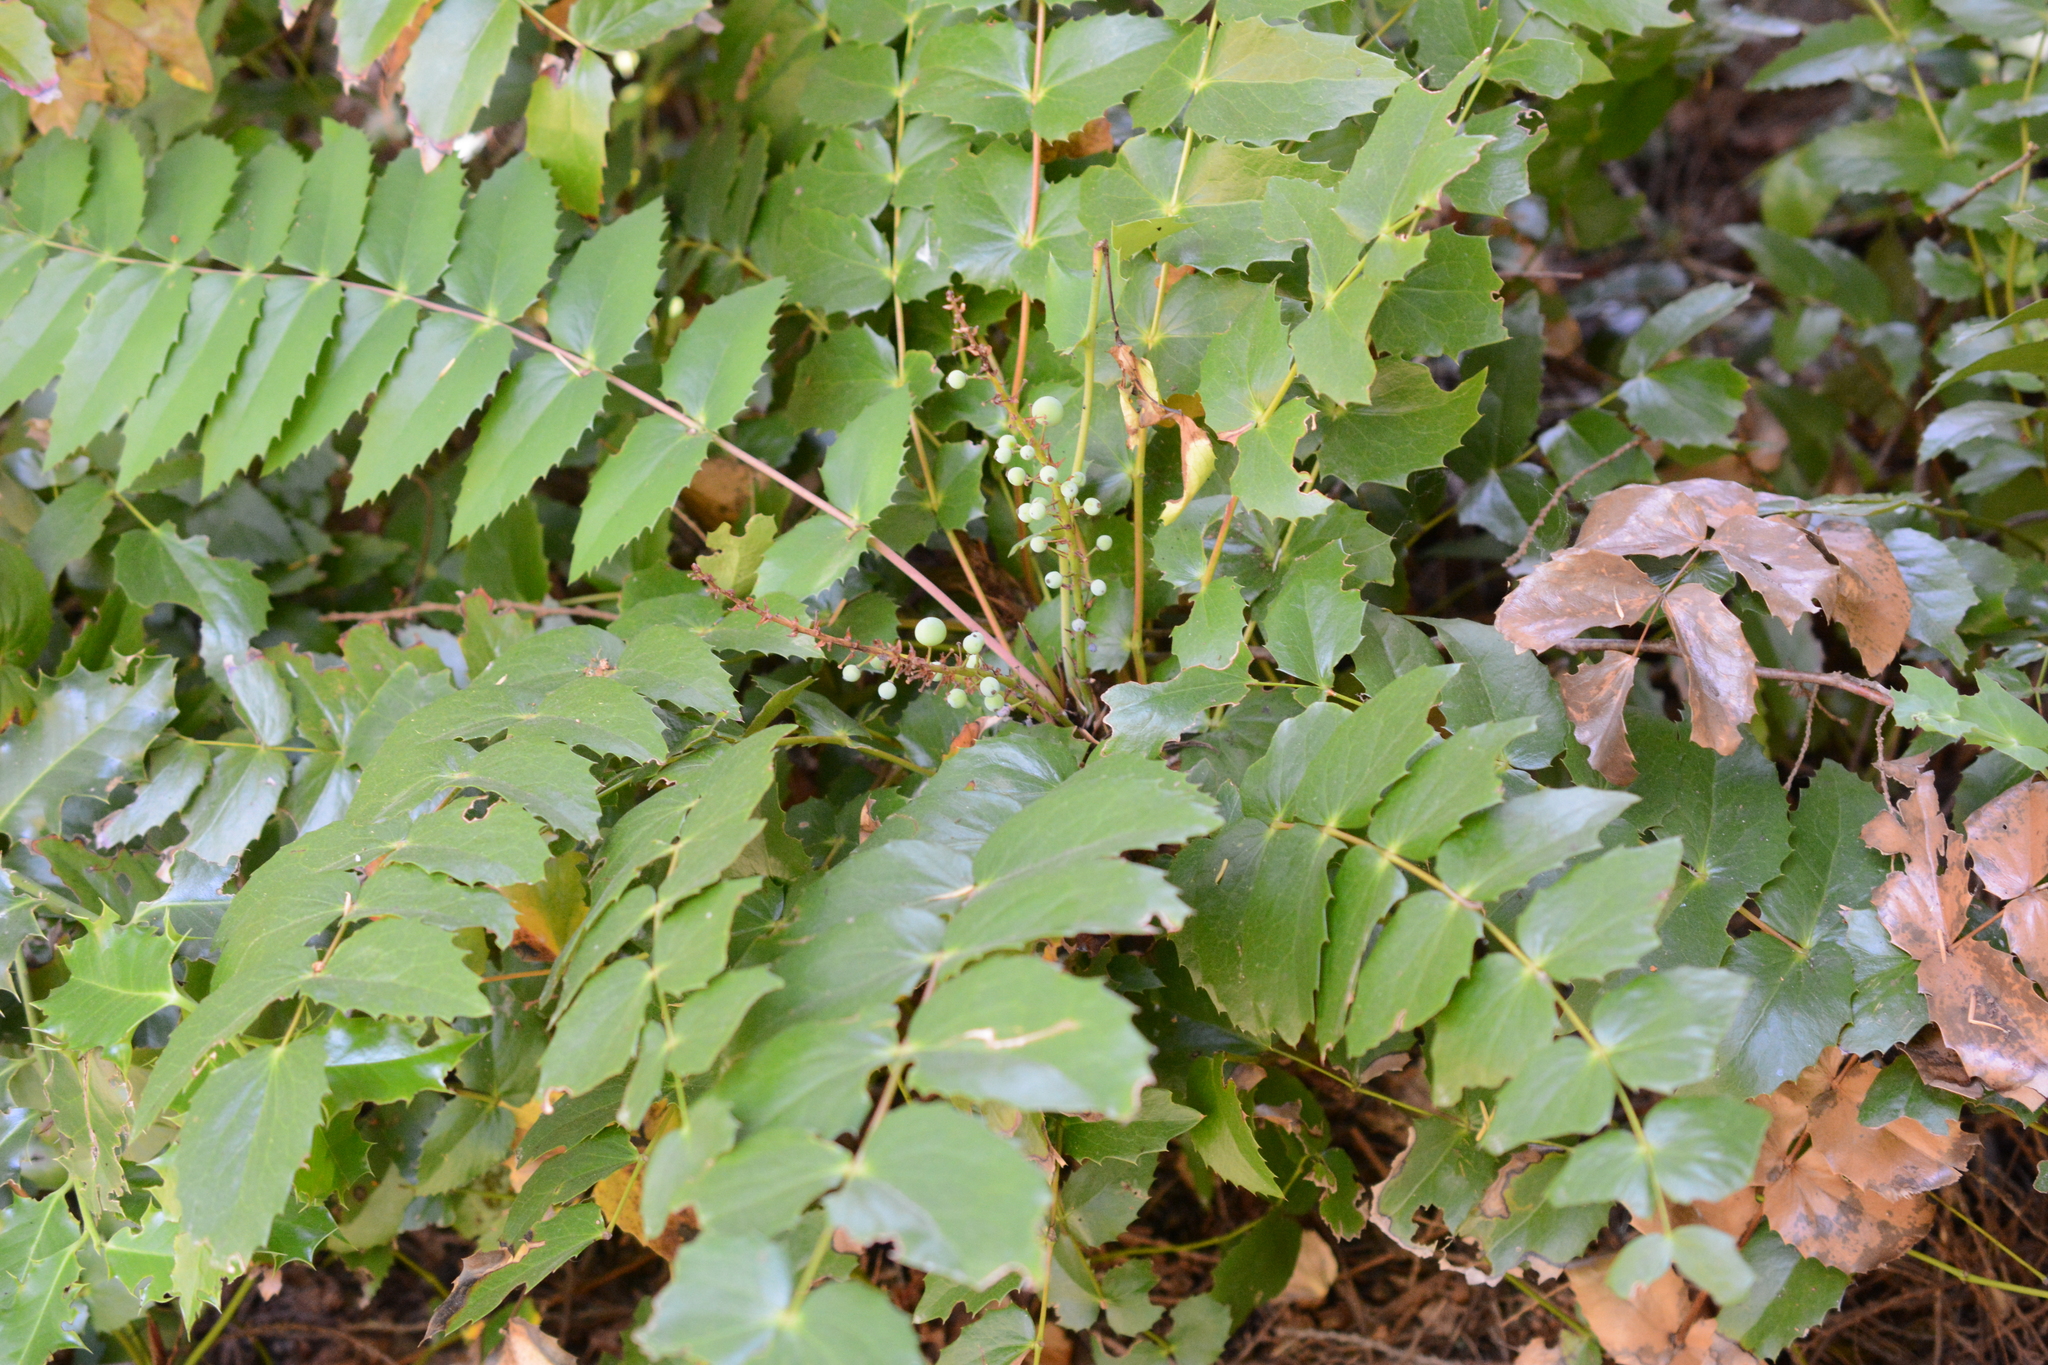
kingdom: Plantae
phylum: Tracheophyta
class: Magnoliopsida
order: Ranunculales
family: Berberidaceae
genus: Mahonia
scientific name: Mahonia nervosa
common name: Cascade oregon-grape
